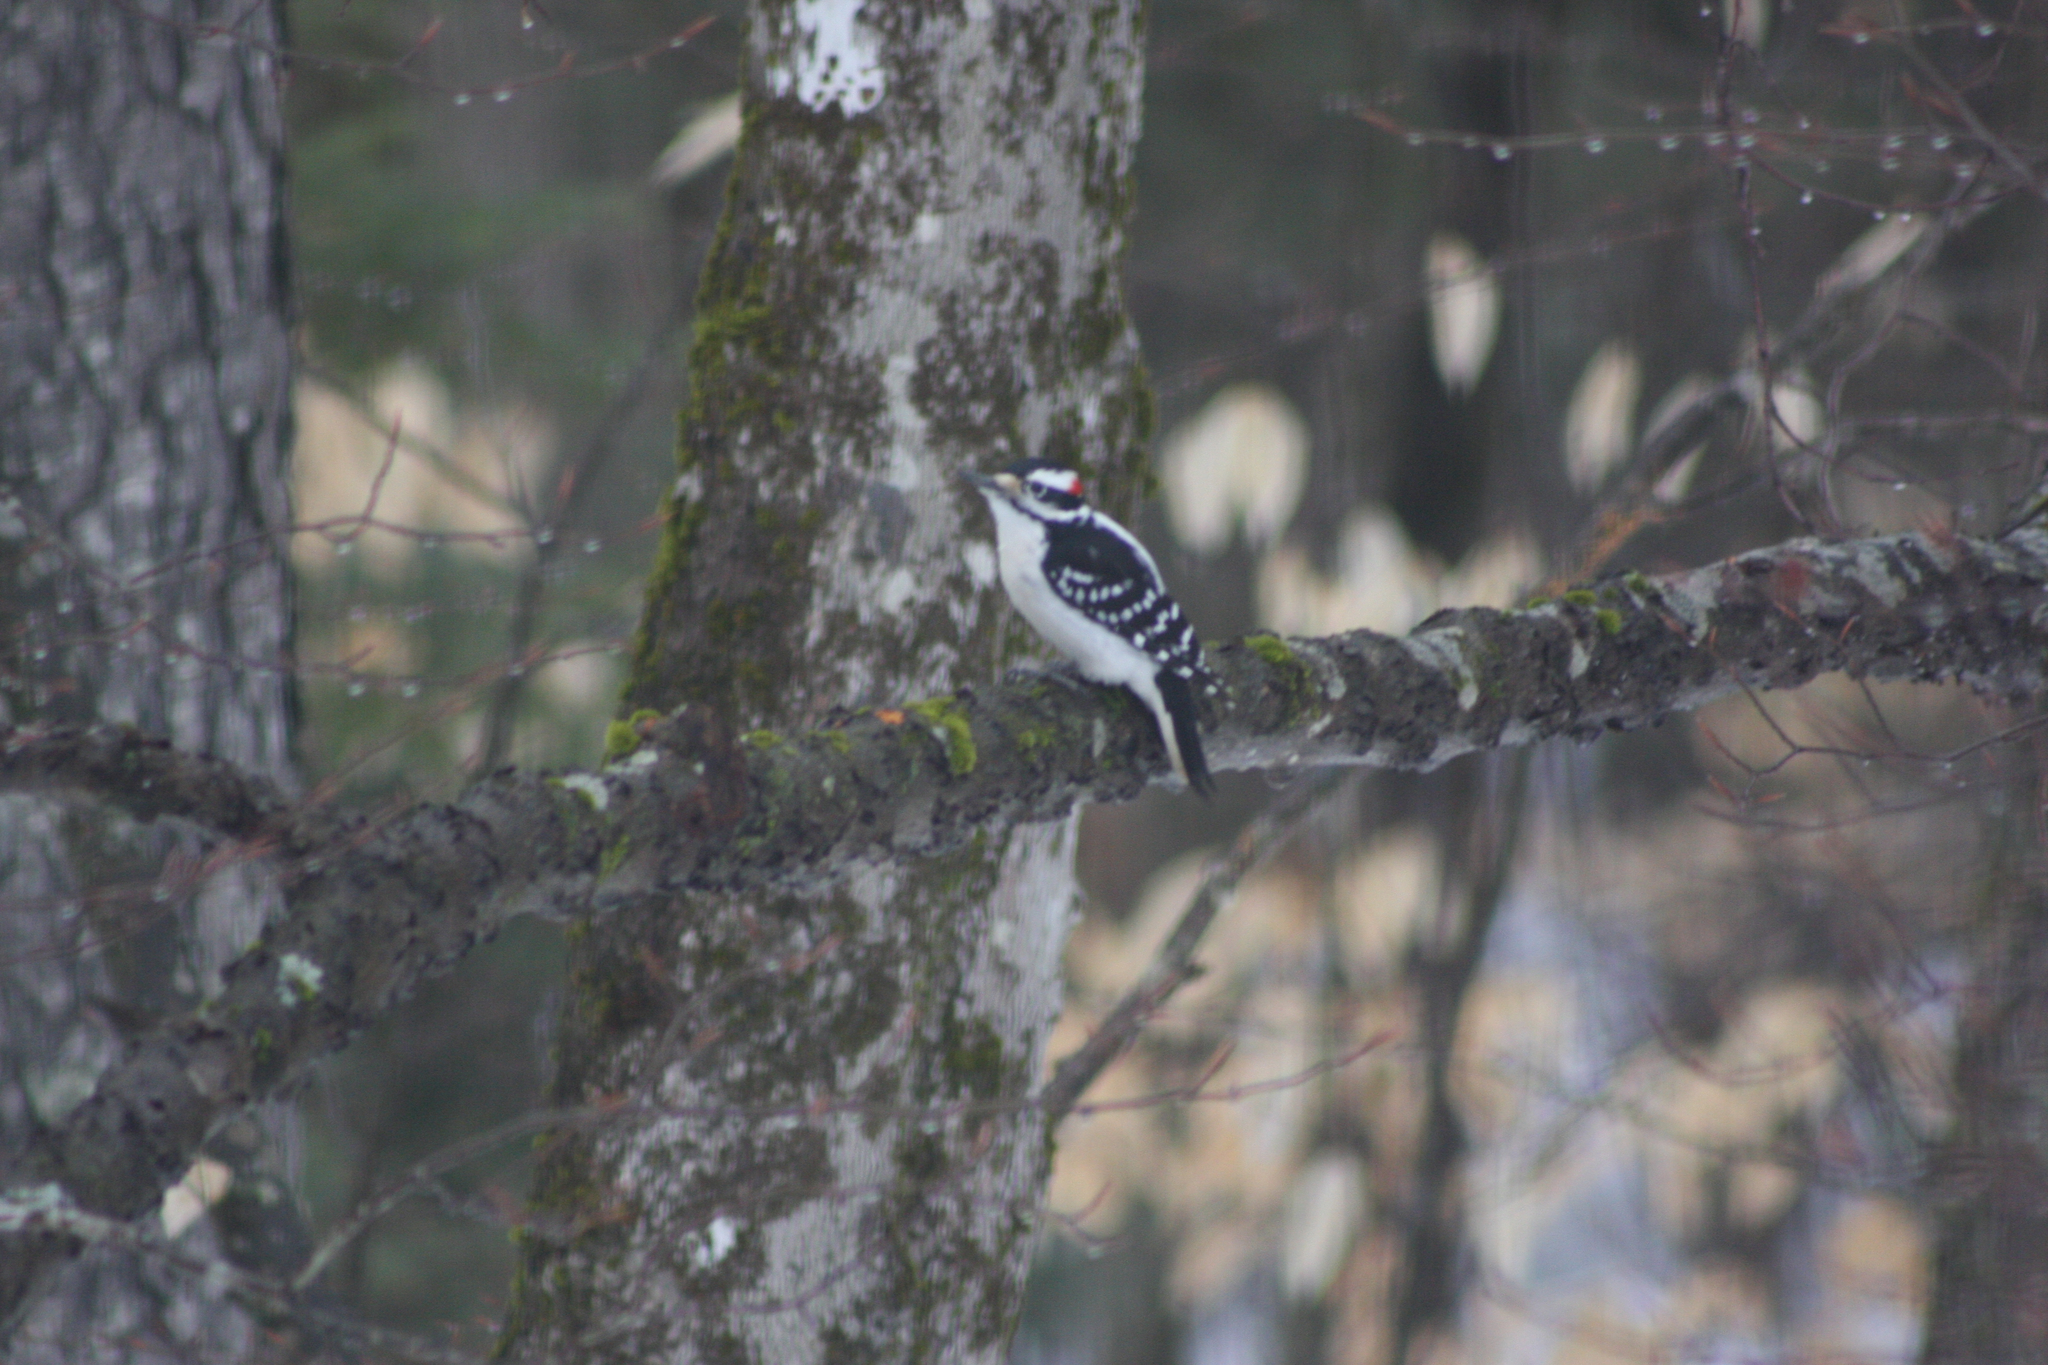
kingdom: Animalia
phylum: Chordata
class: Aves
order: Piciformes
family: Picidae
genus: Leuconotopicus
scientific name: Leuconotopicus villosus
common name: Hairy woodpecker
